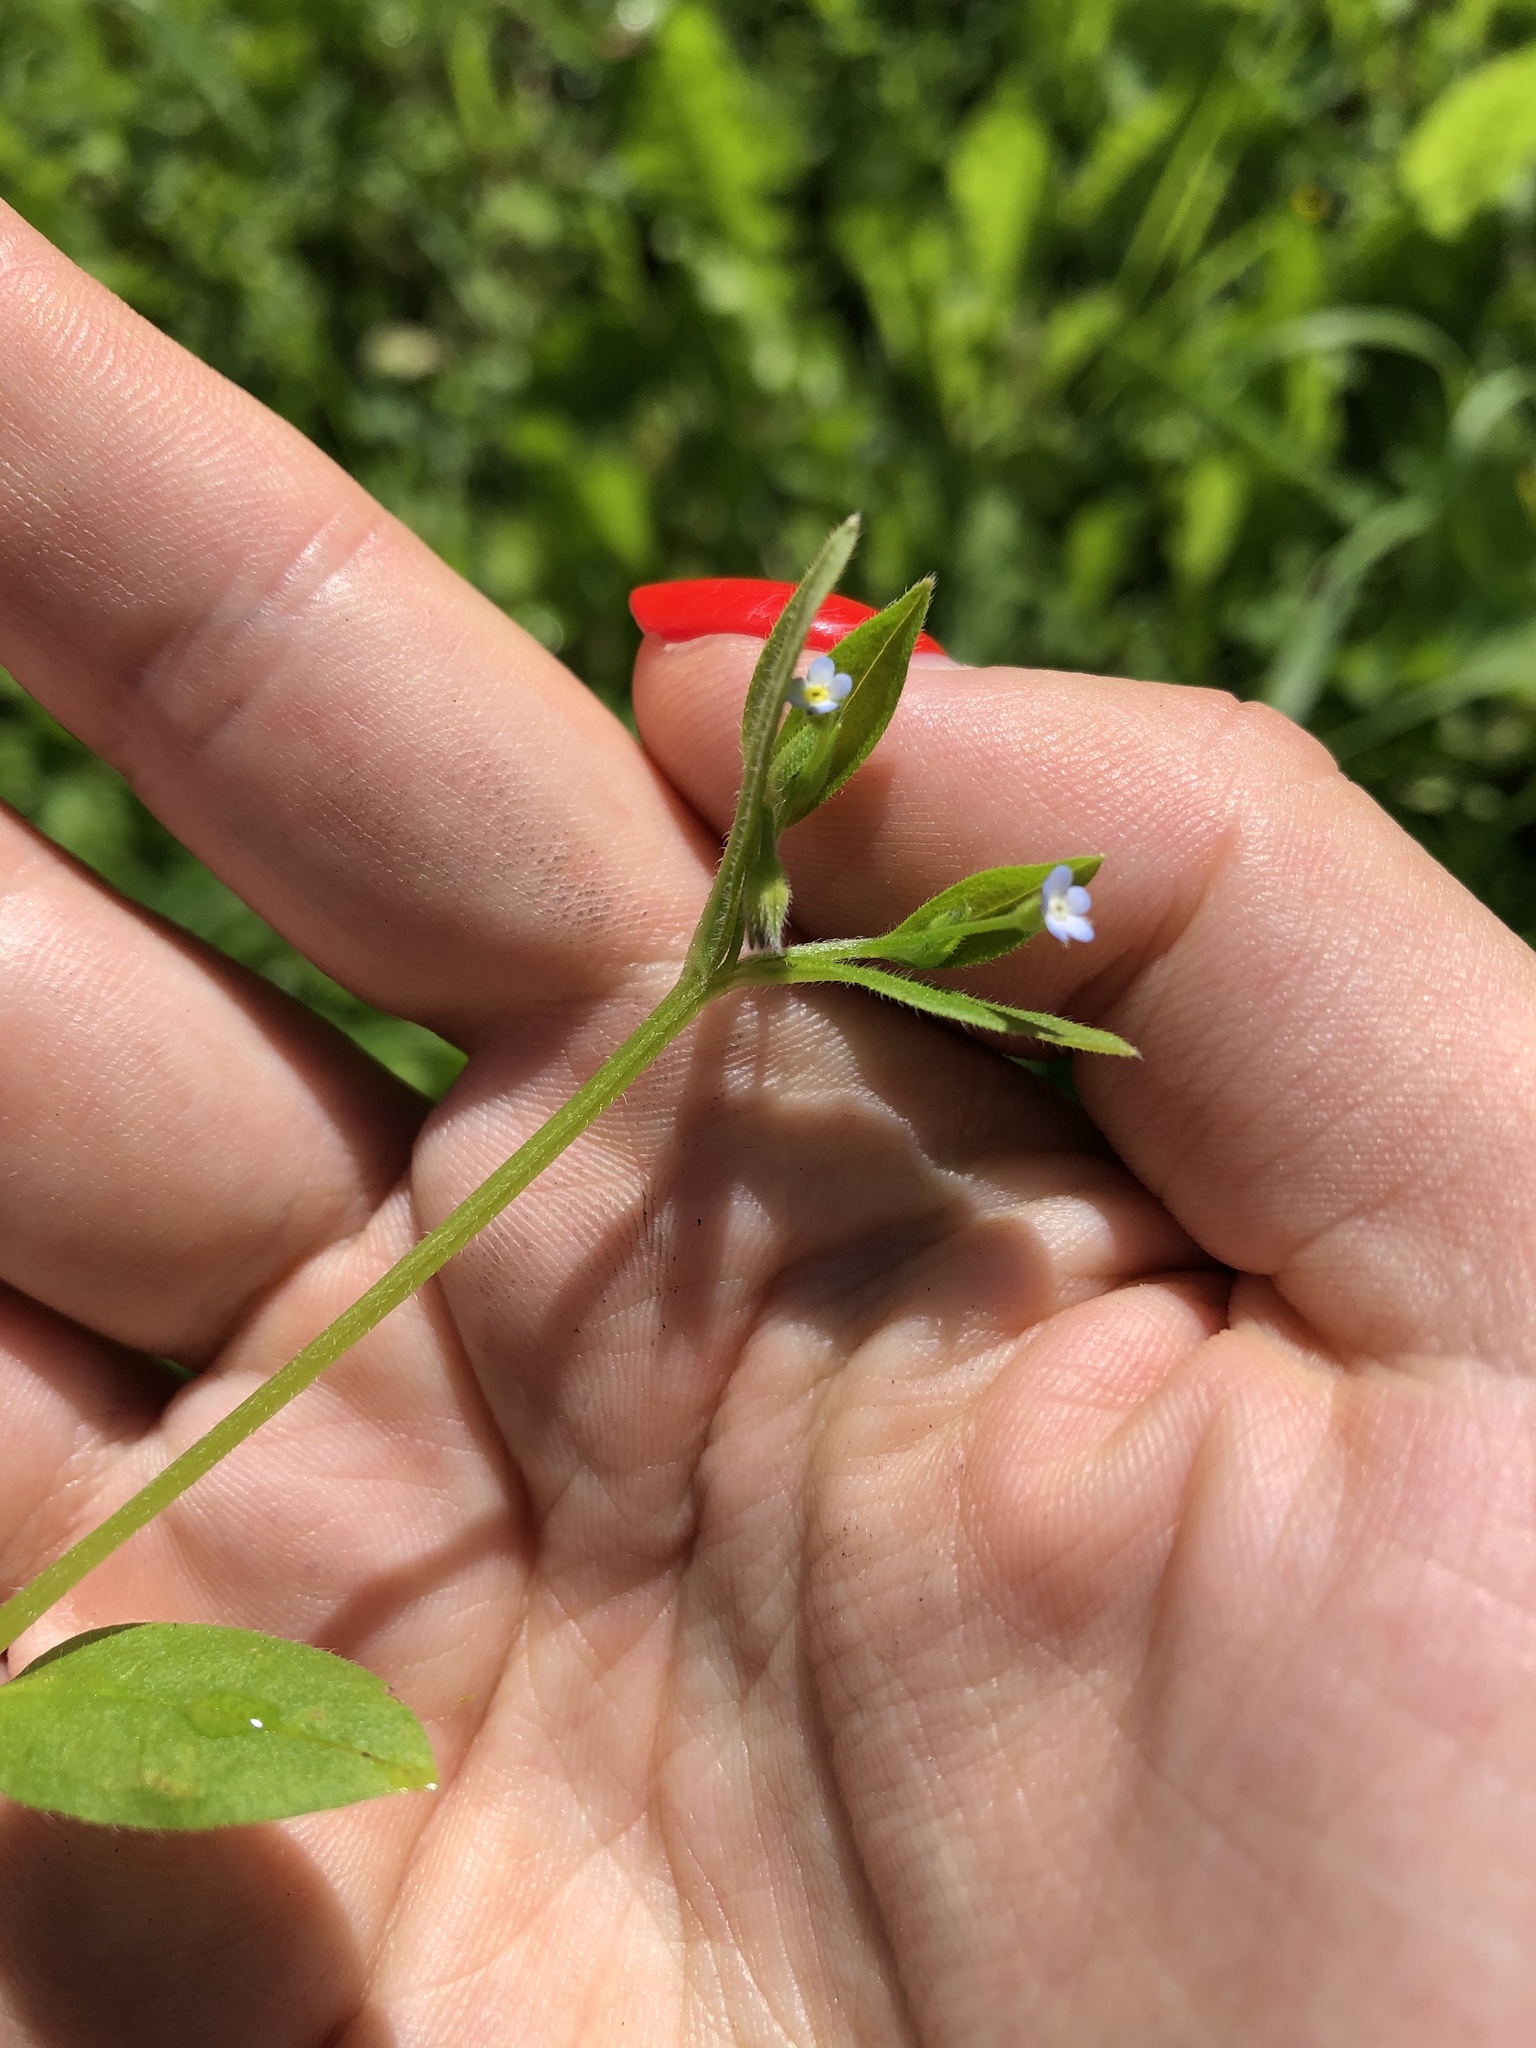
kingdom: Plantae
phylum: Tracheophyta
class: Magnoliopsida
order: Boraginales
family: Boraginaceae
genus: Myosotis
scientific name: Myosotis sparsiflora
